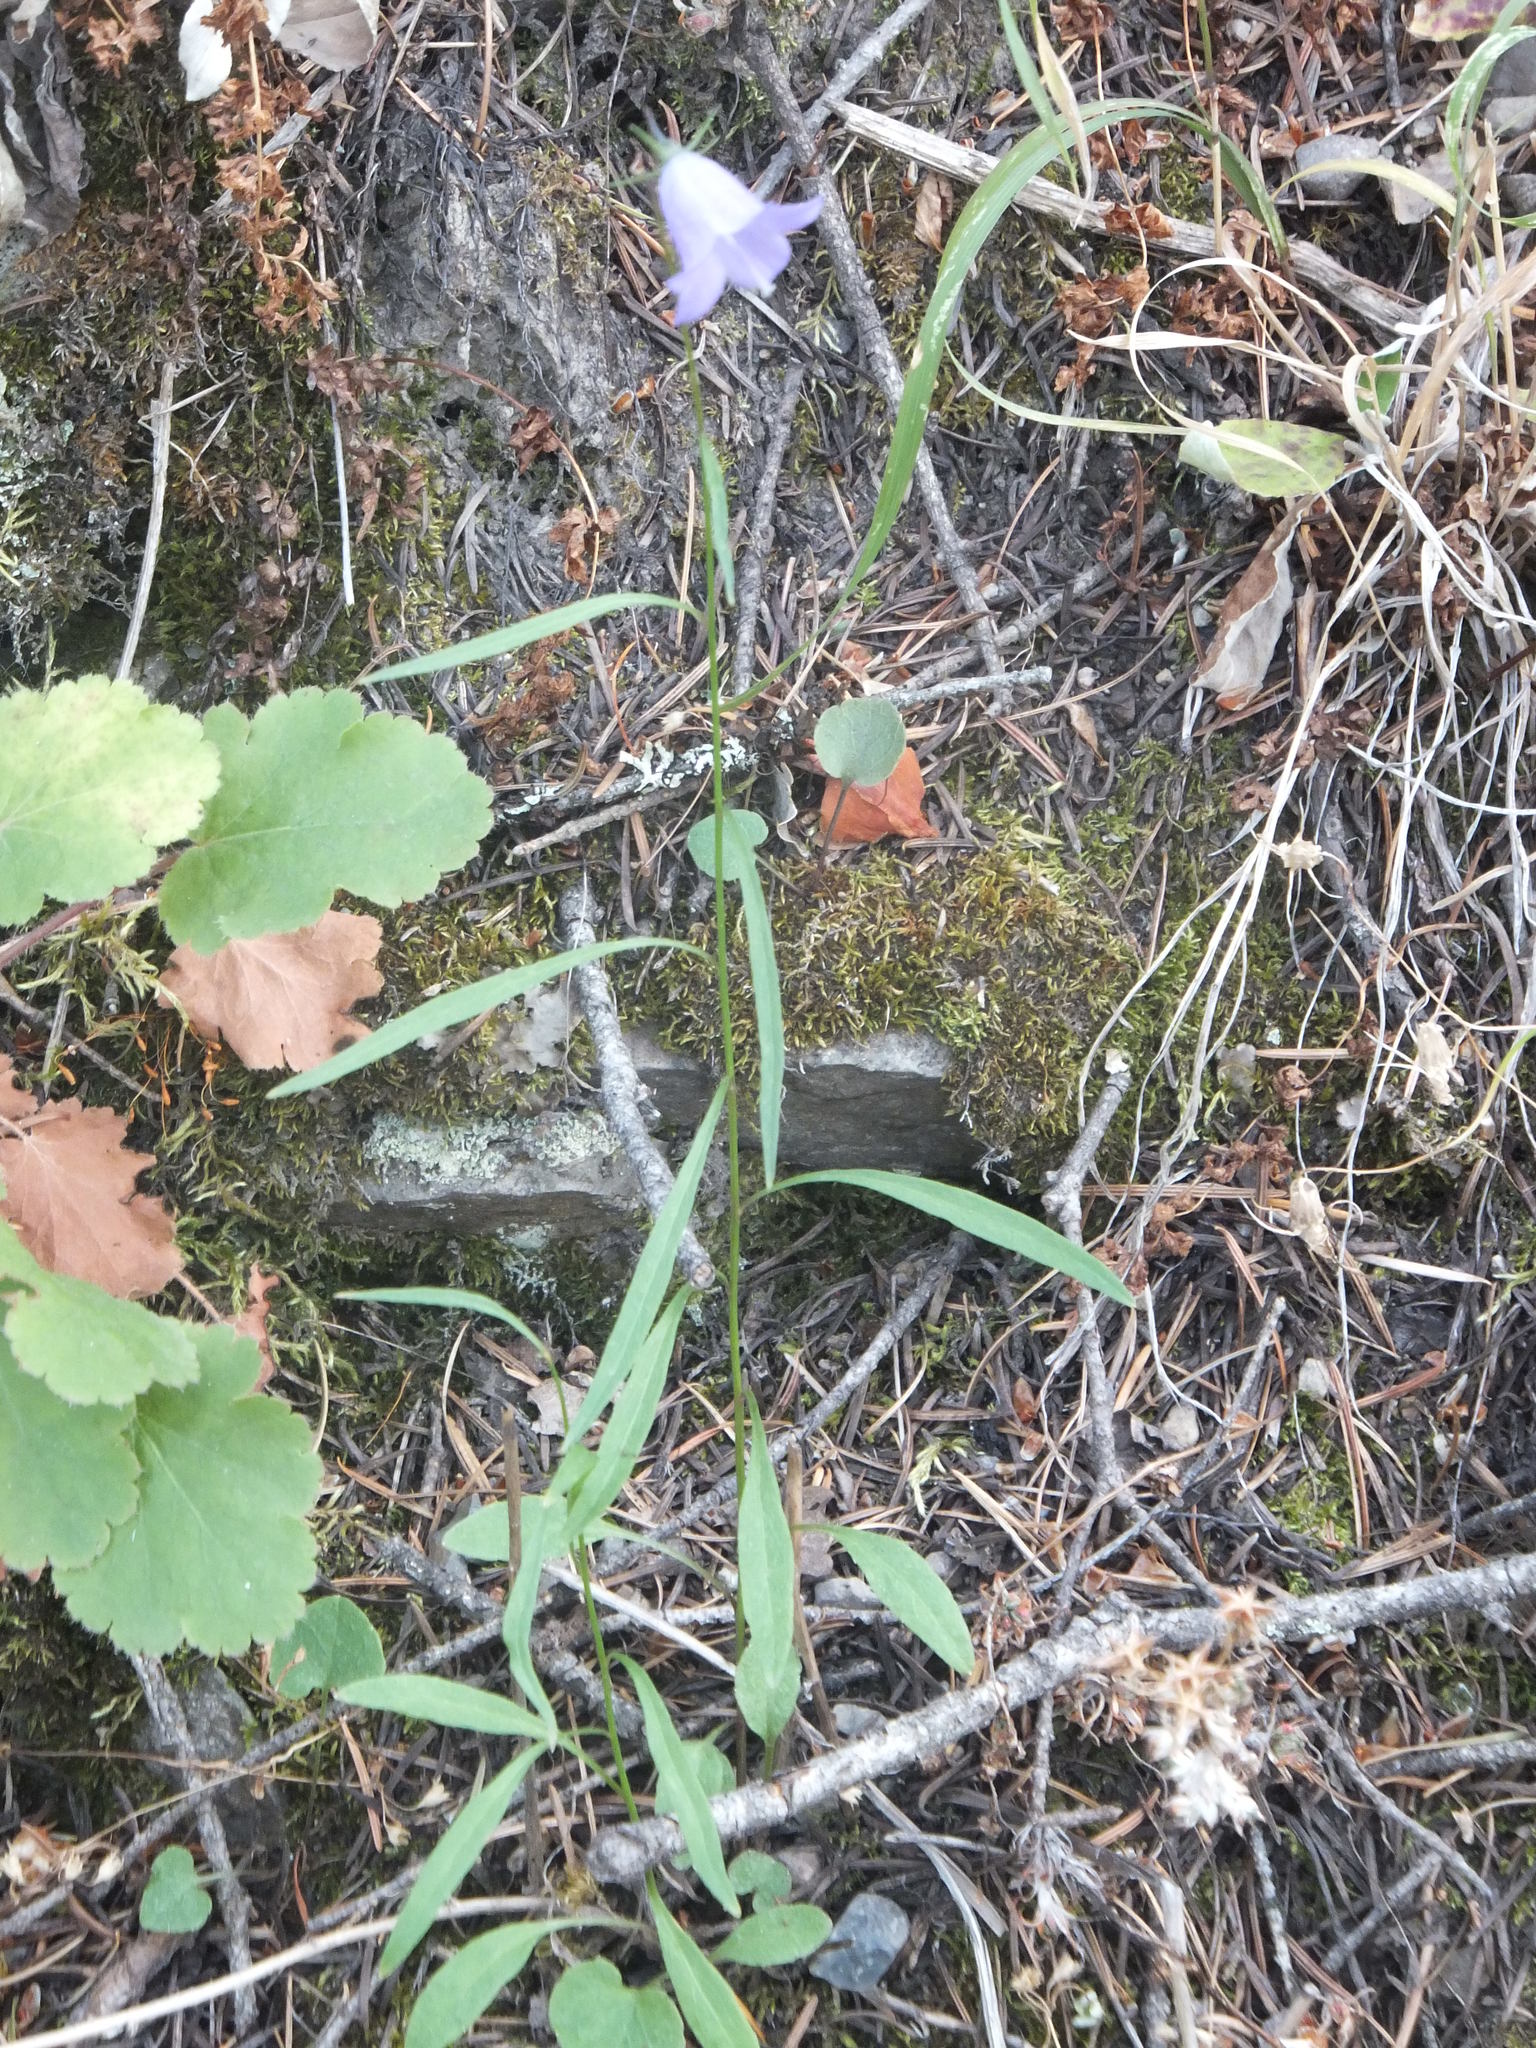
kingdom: Plantae
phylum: Tracheophyta
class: Magnoliopsida
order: Asterales
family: Campanulaceae
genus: Campanula
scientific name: Campanula alaskana
